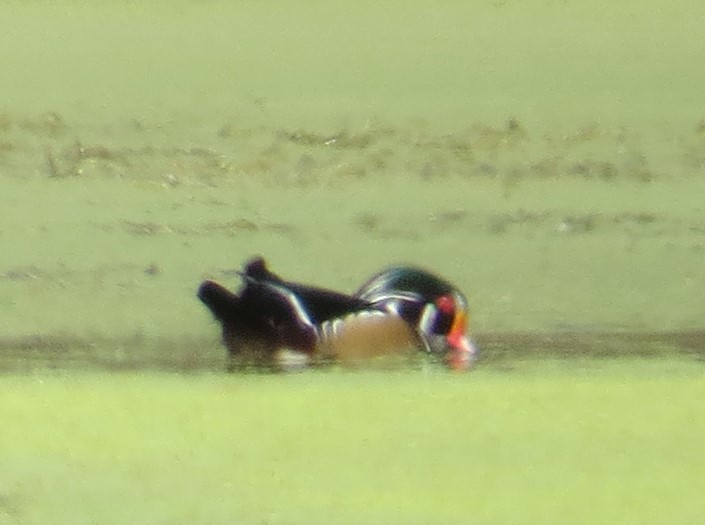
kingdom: Animalia
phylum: Chordata
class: Aves
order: Anseriformes
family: Anatidae
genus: Aix
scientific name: Aix sponsa
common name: Wood duck
